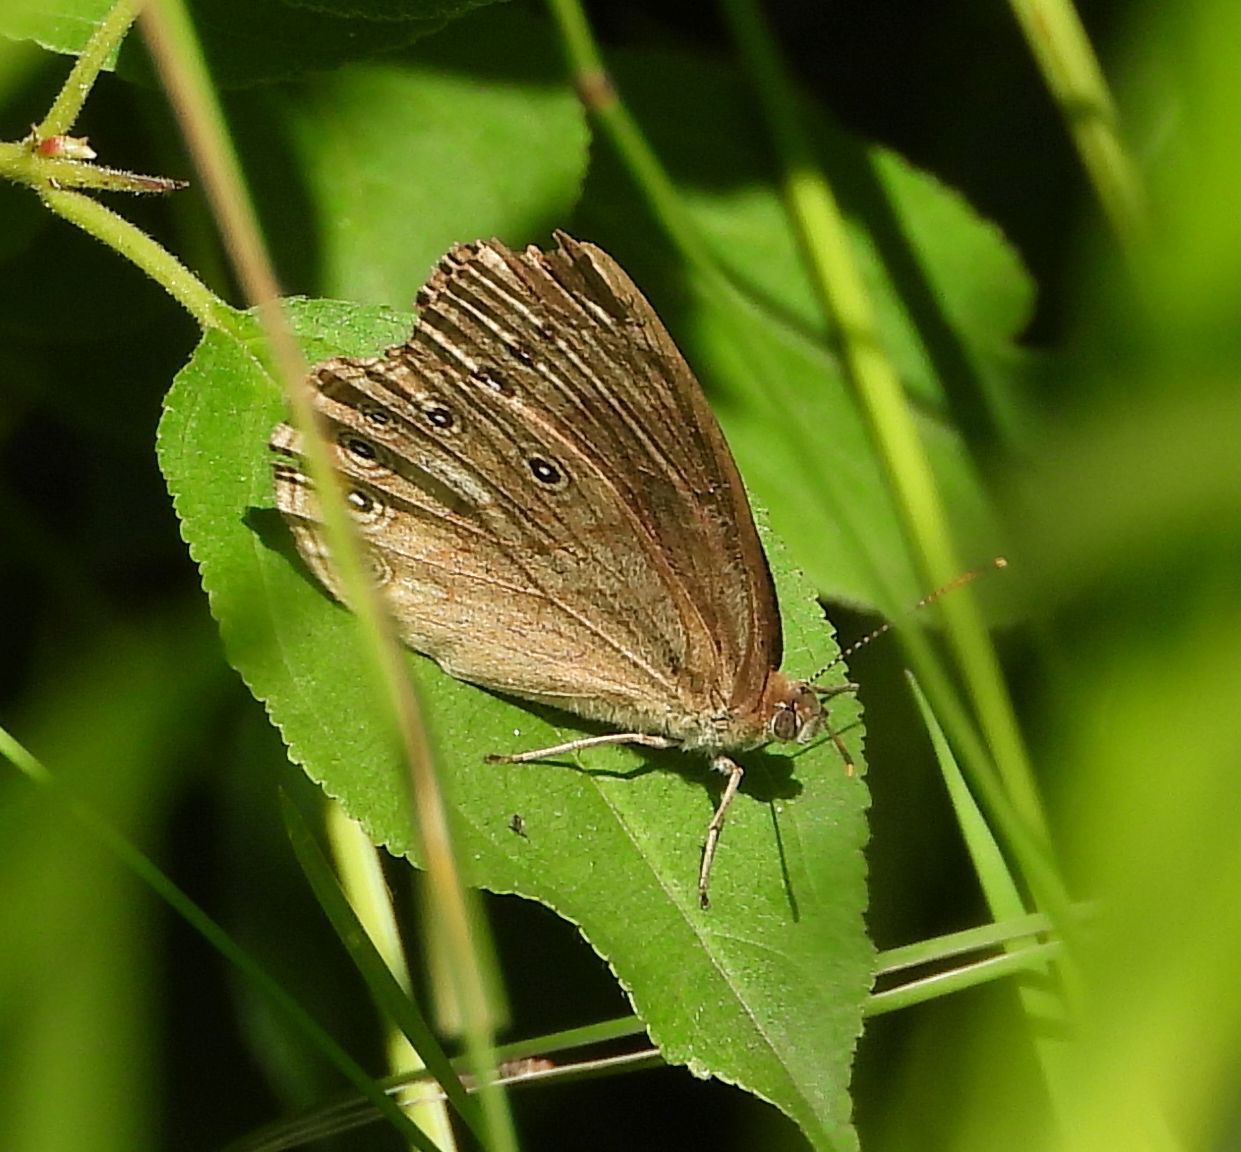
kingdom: Animalia
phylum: Arthropoda
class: Insecta
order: Lepidoptera
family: Nymphalidae
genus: Lethe
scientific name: Lethe eurydice
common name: Eyed brown
